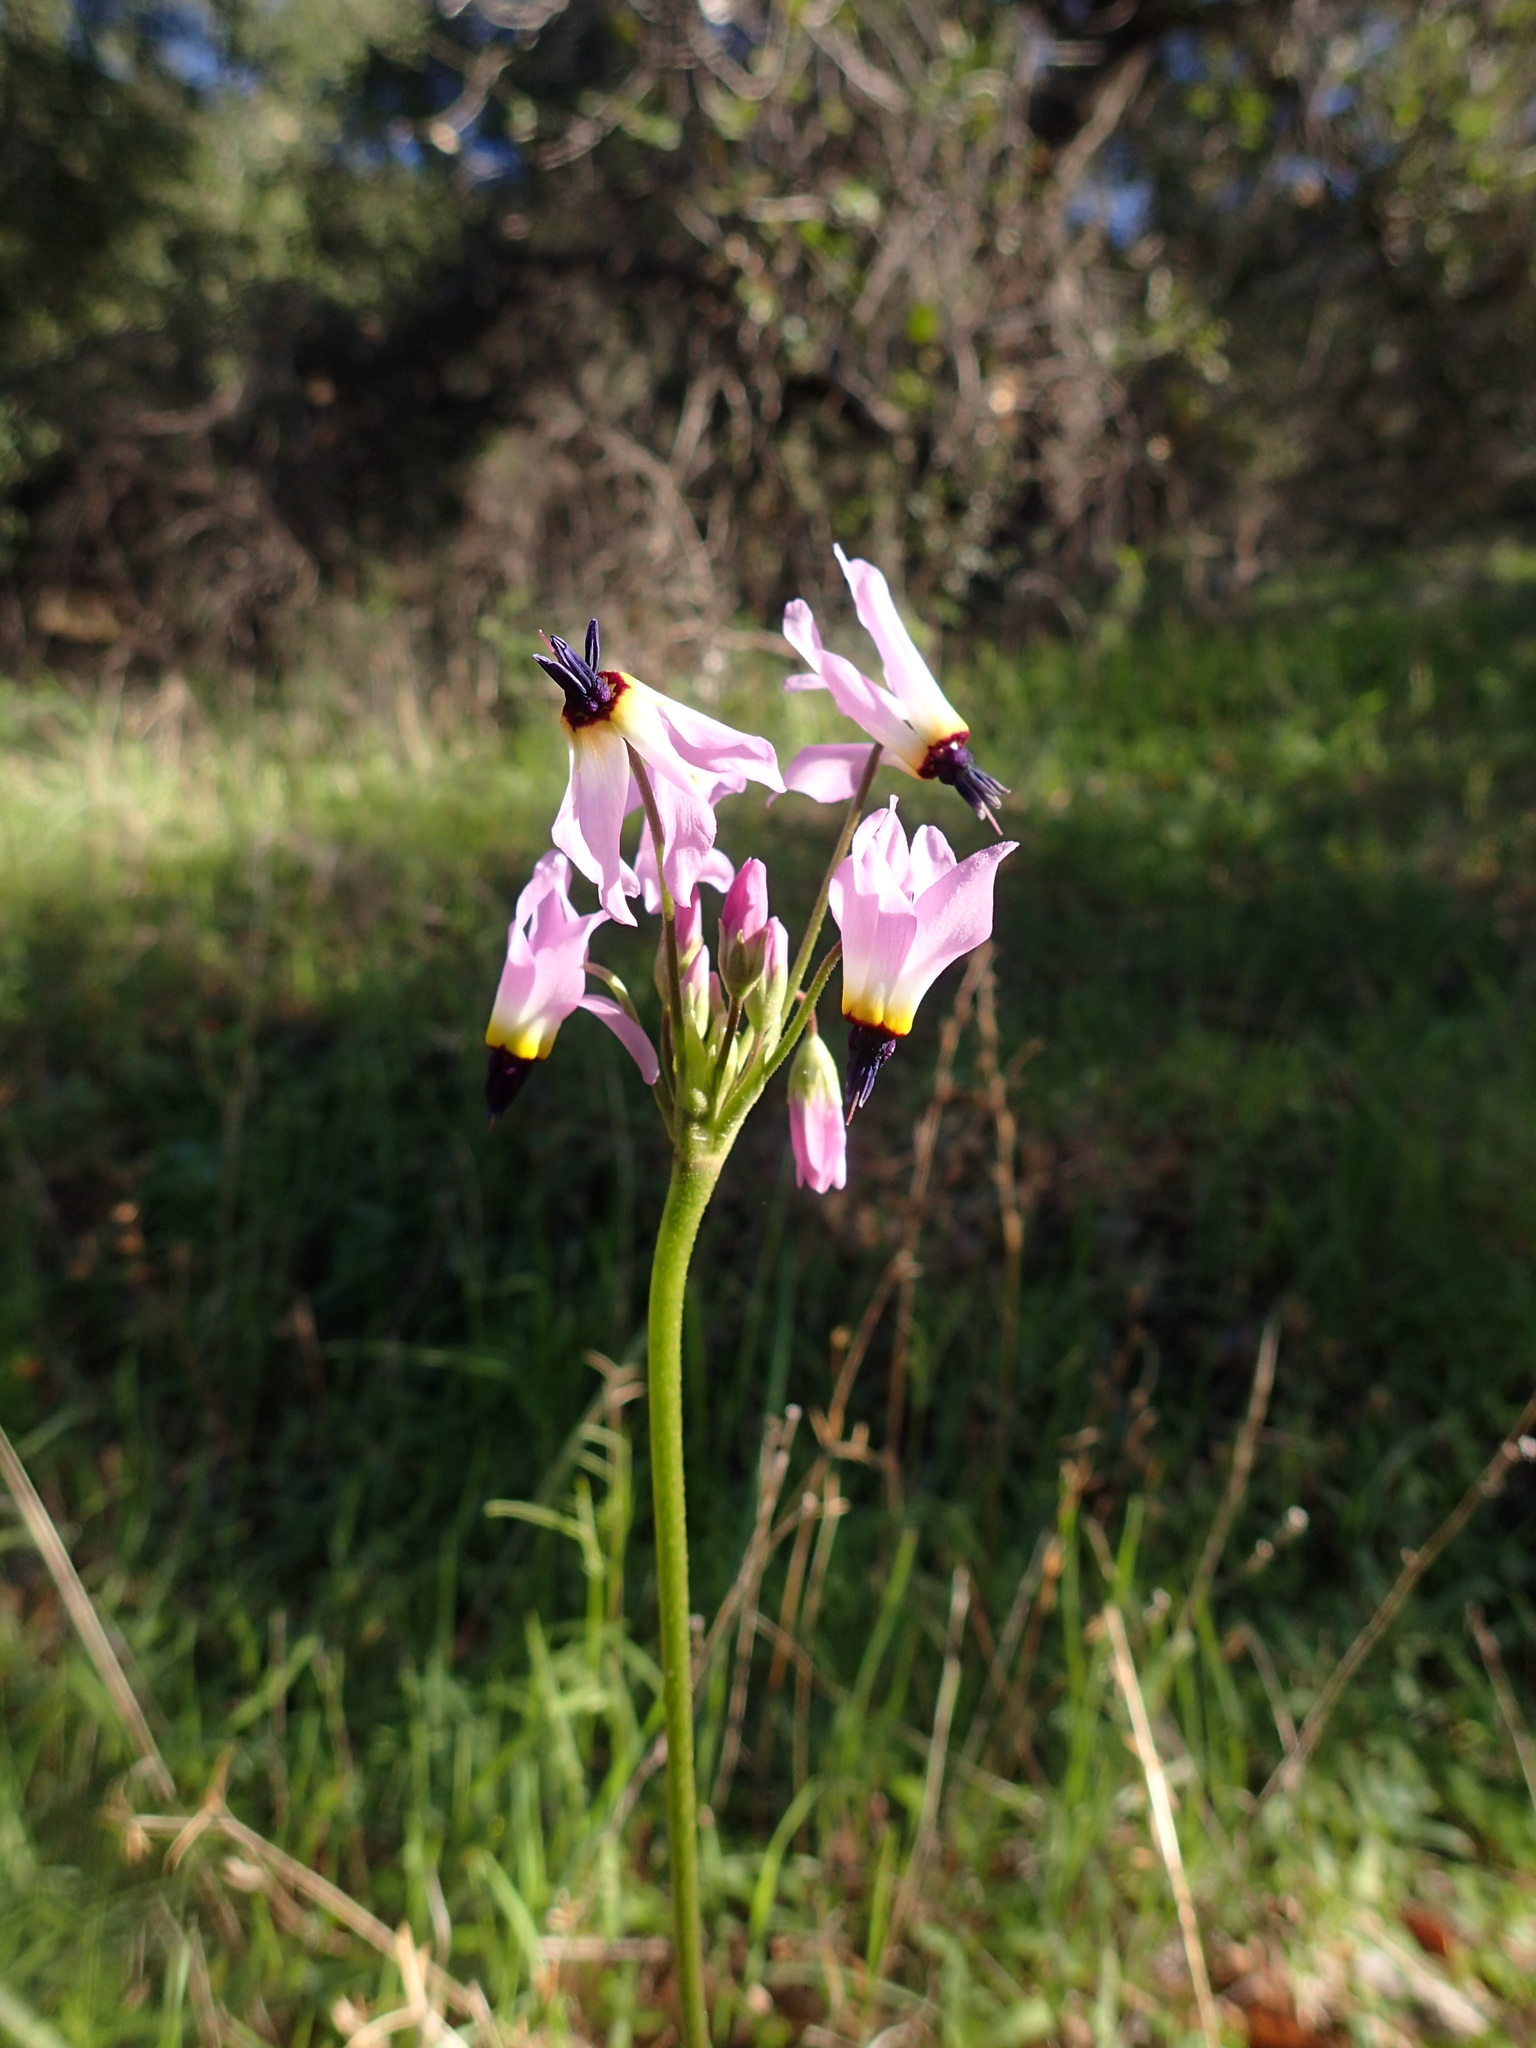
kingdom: Plantae
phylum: Tracheophyta
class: Magnoliopsida
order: Ericales
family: Primulaceae
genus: Dodecatheon
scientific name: Dodecatheon clevelandii
